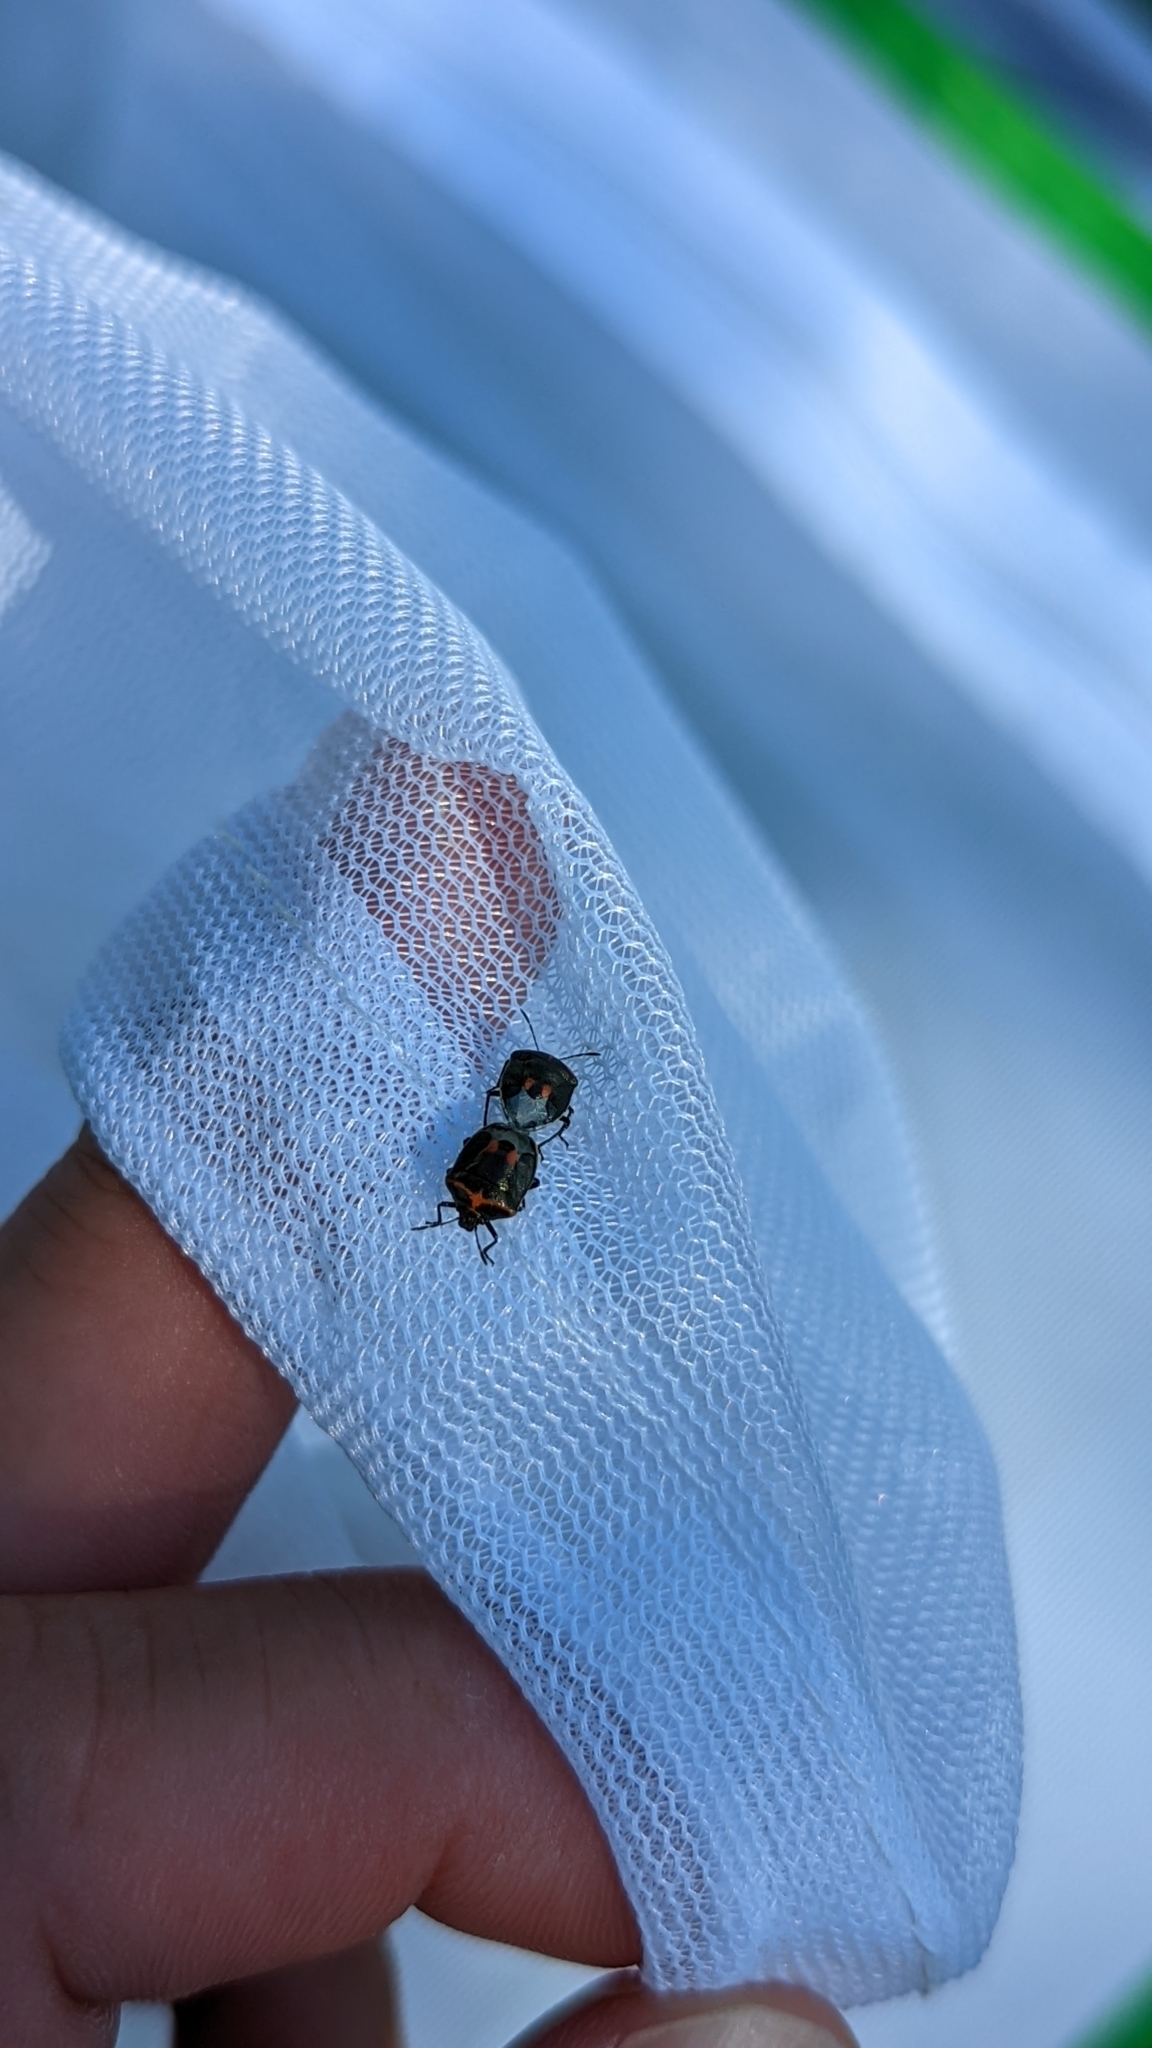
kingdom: Animalia
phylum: Arthropoda
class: Insecta
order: Hemiptera
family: Pentatomidae
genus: Cosmopepla
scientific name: Cosmopepla lintneriana
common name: Twice-stabbed stink bug
